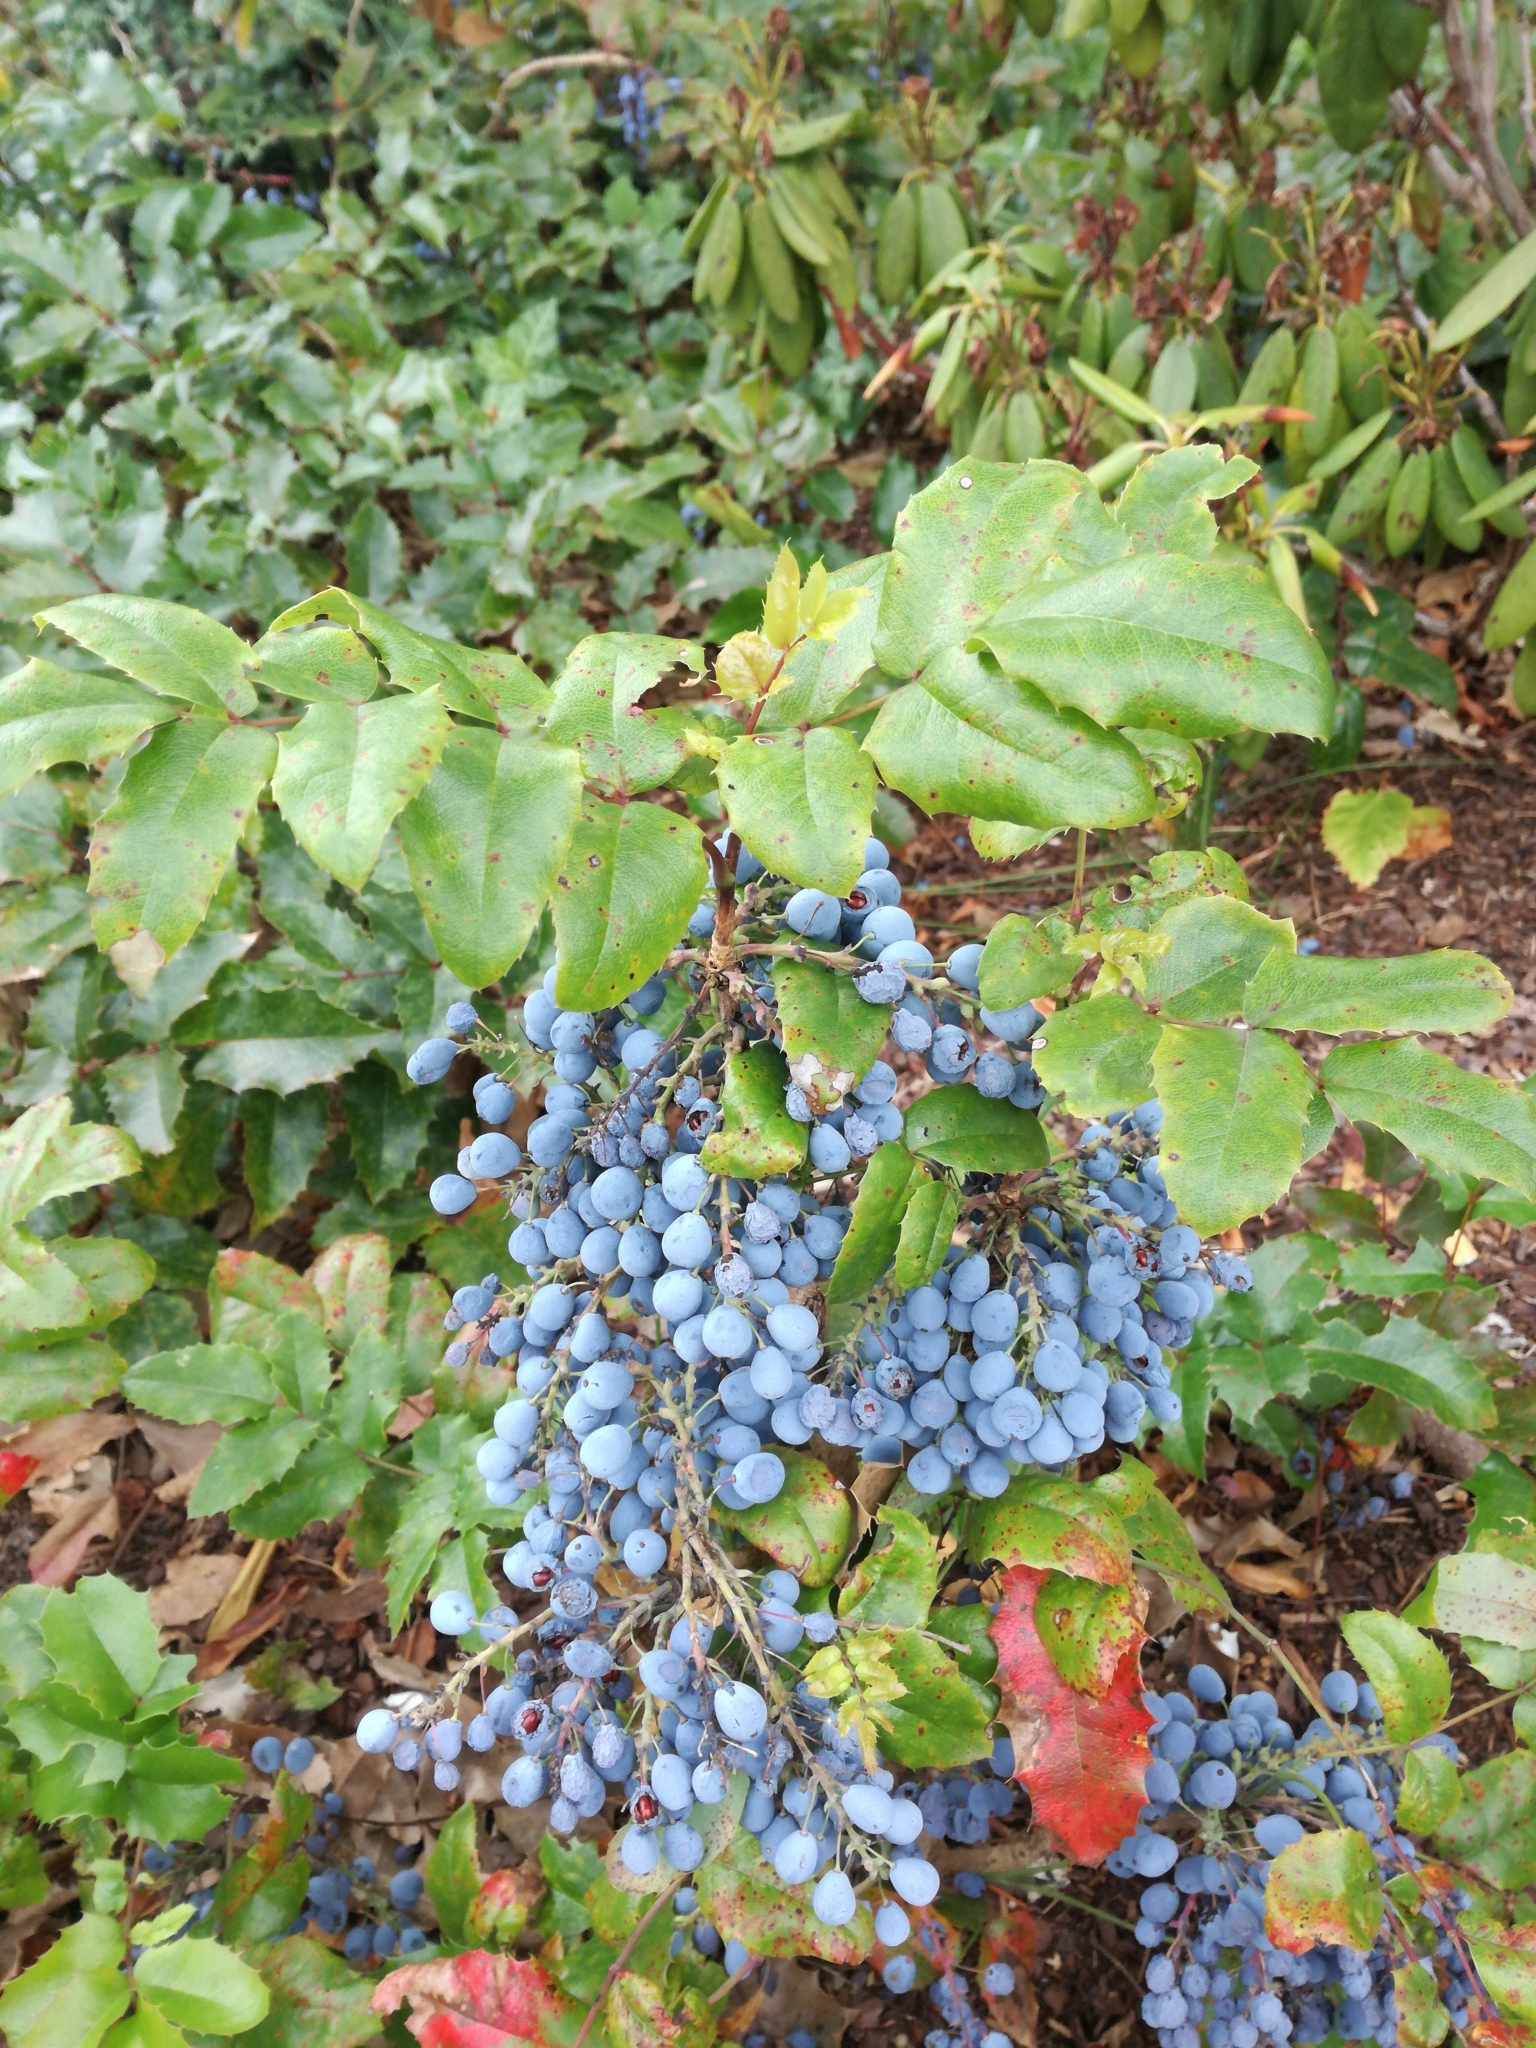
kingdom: Plantae
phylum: Tracheophyta
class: Magnoliopsida
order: Ranunculales
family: Berberidaceae
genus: Mahonia
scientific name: Mahonia aquifolium
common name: Oregon-grape
